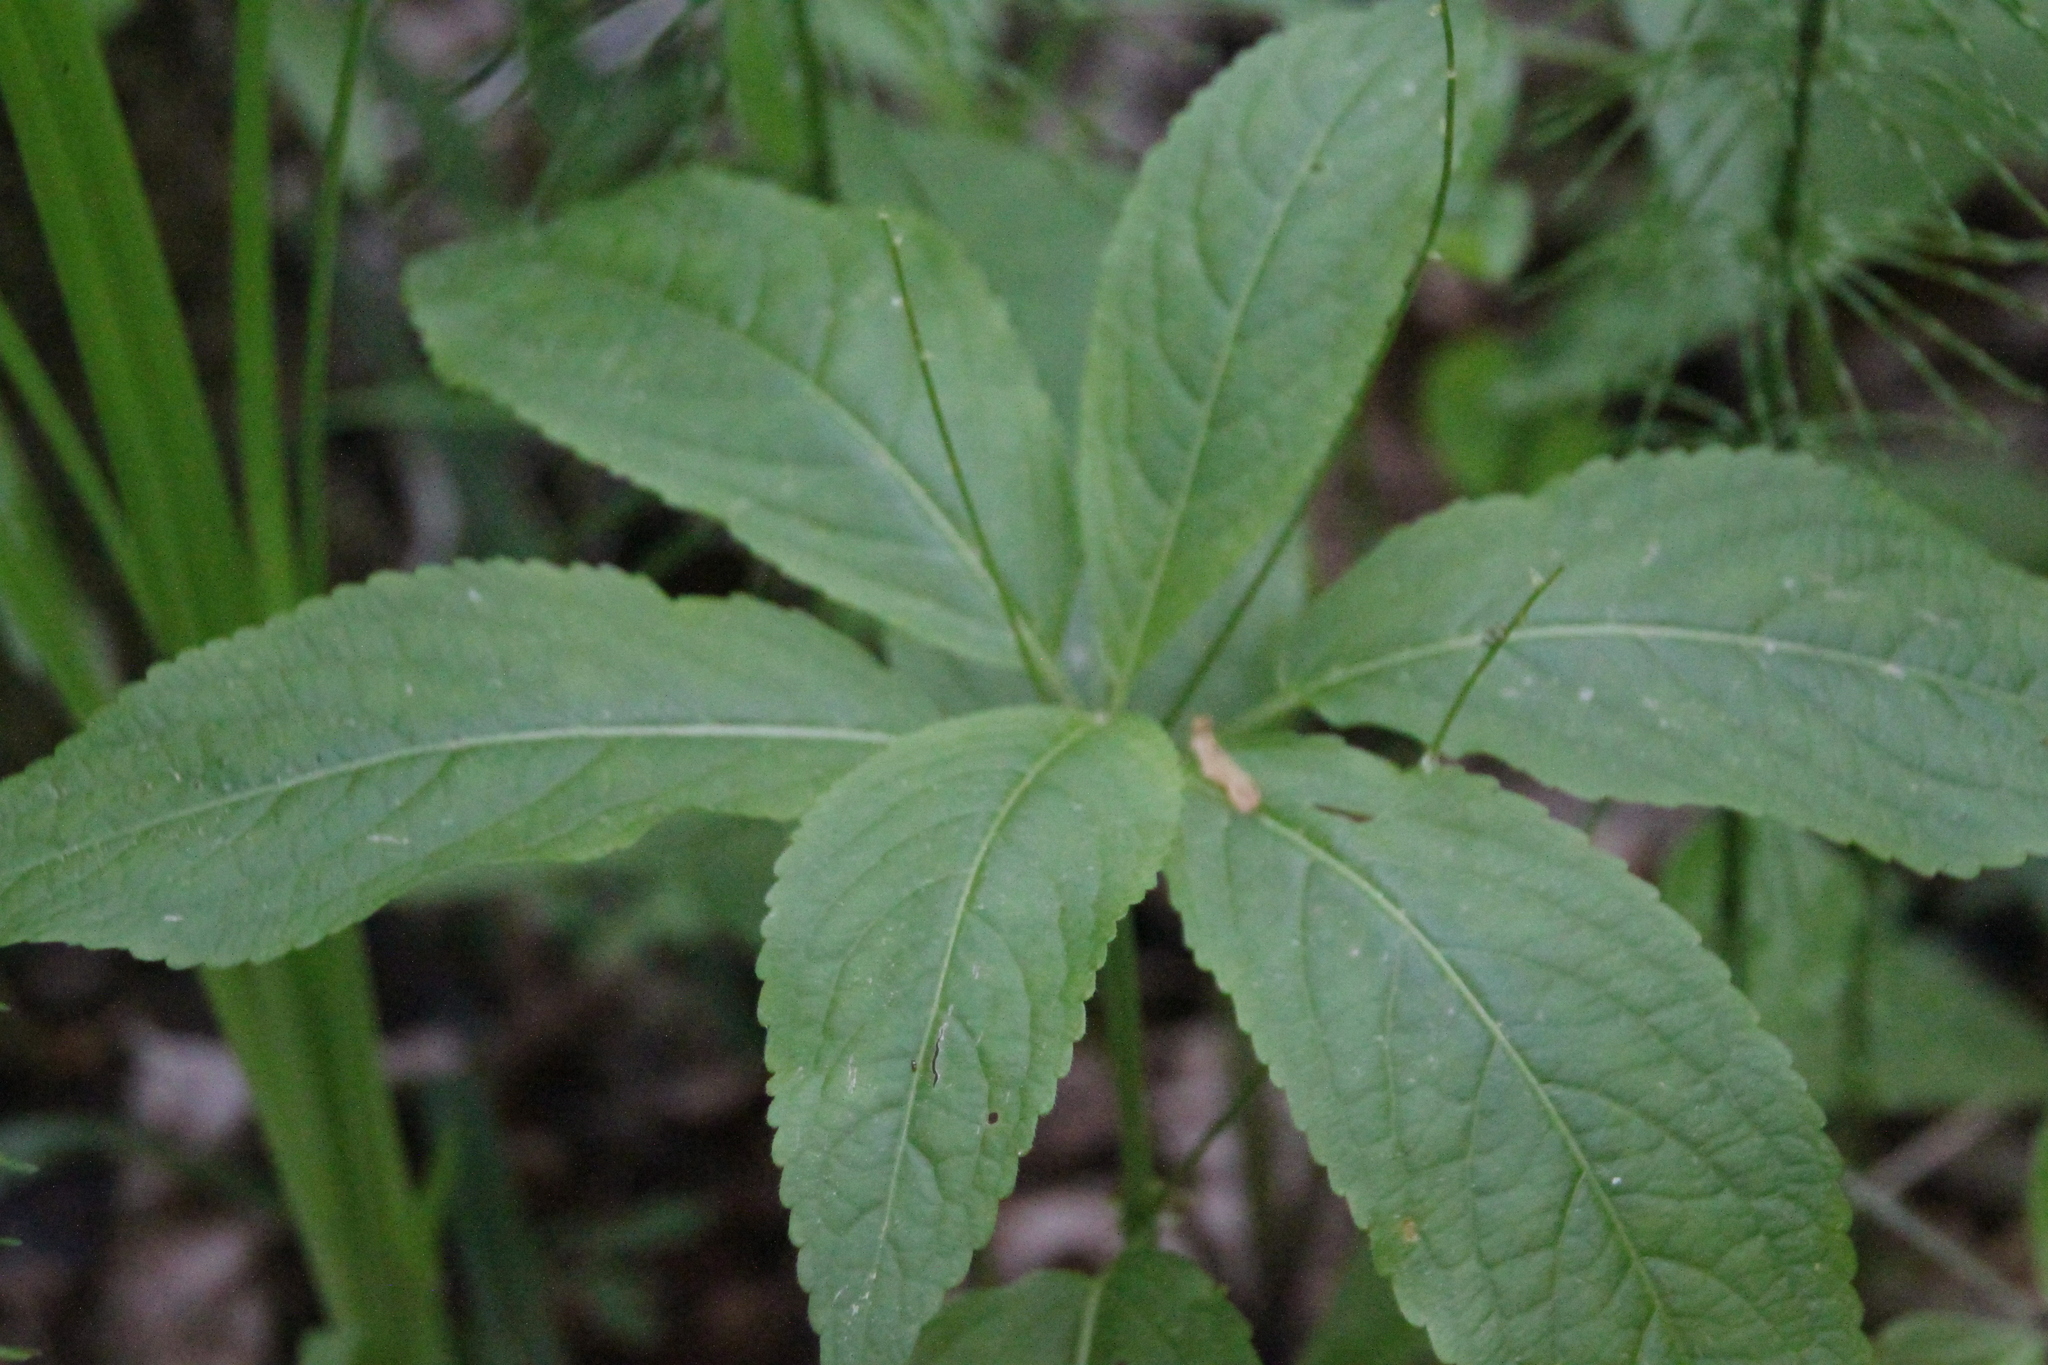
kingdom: Plantae
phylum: Tracheophyta
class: Magnoliopsida
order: Malpighiales
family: Euphorbiaceae
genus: Mercurialis
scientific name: Mercurialis perennis
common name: Dog mercury
